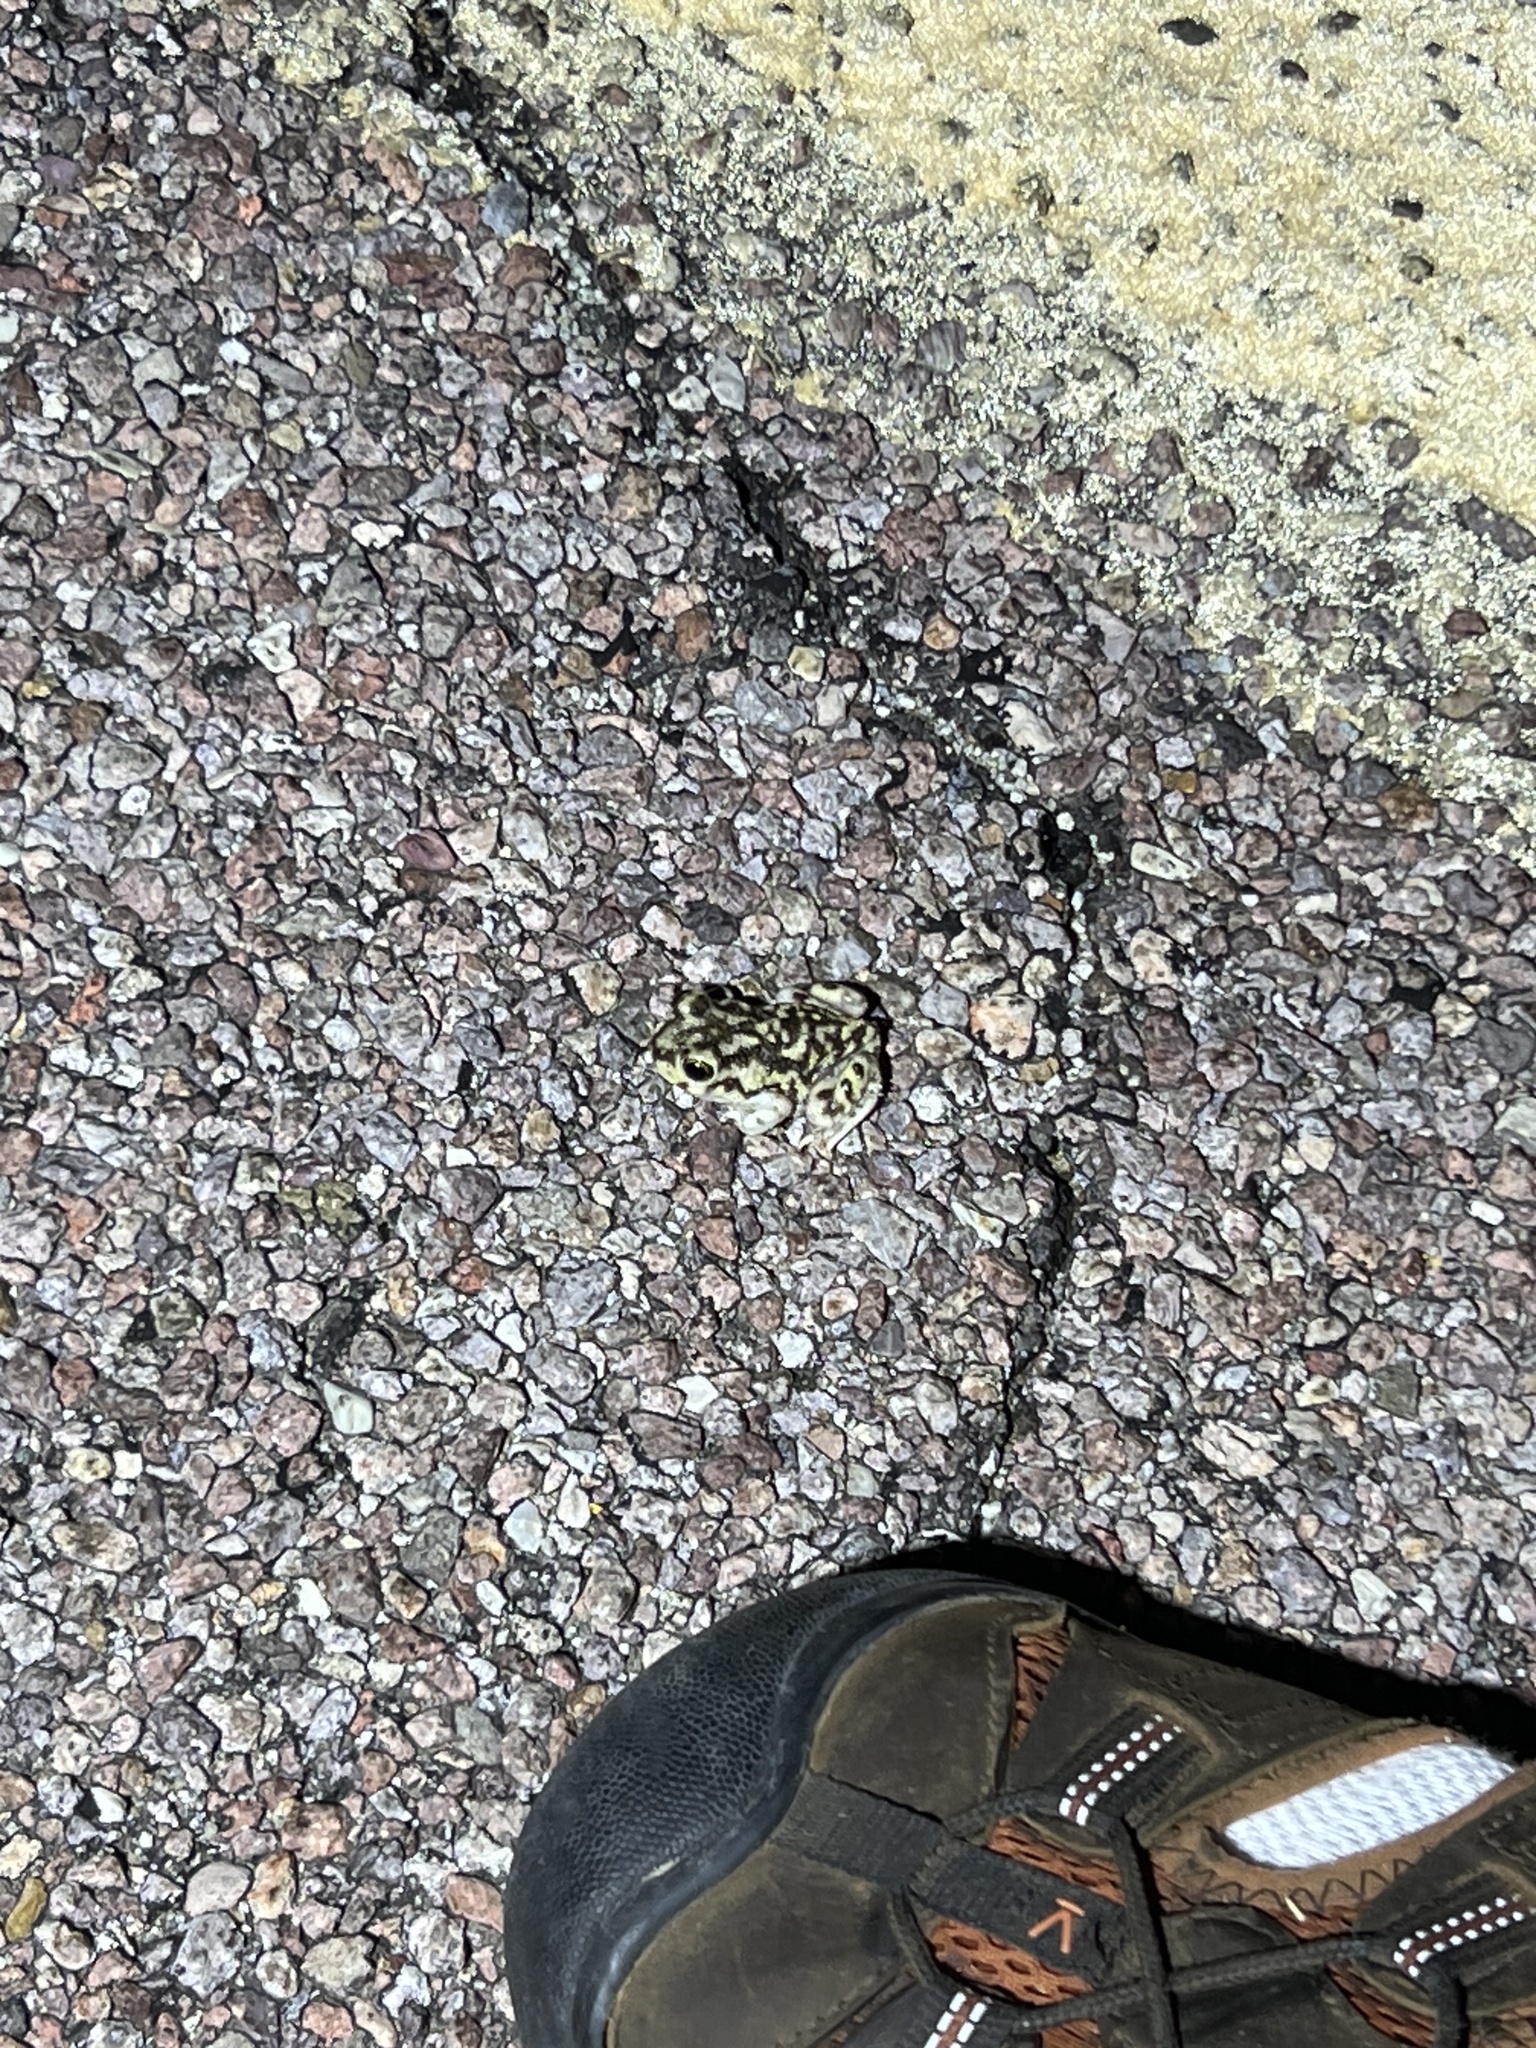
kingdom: Animalia
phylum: Chordata
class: Amphibia
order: Anura
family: Scaphiopodidae
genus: Scaphiopus
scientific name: Scaphiopus couchii
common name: Couch's spadefoot toad
